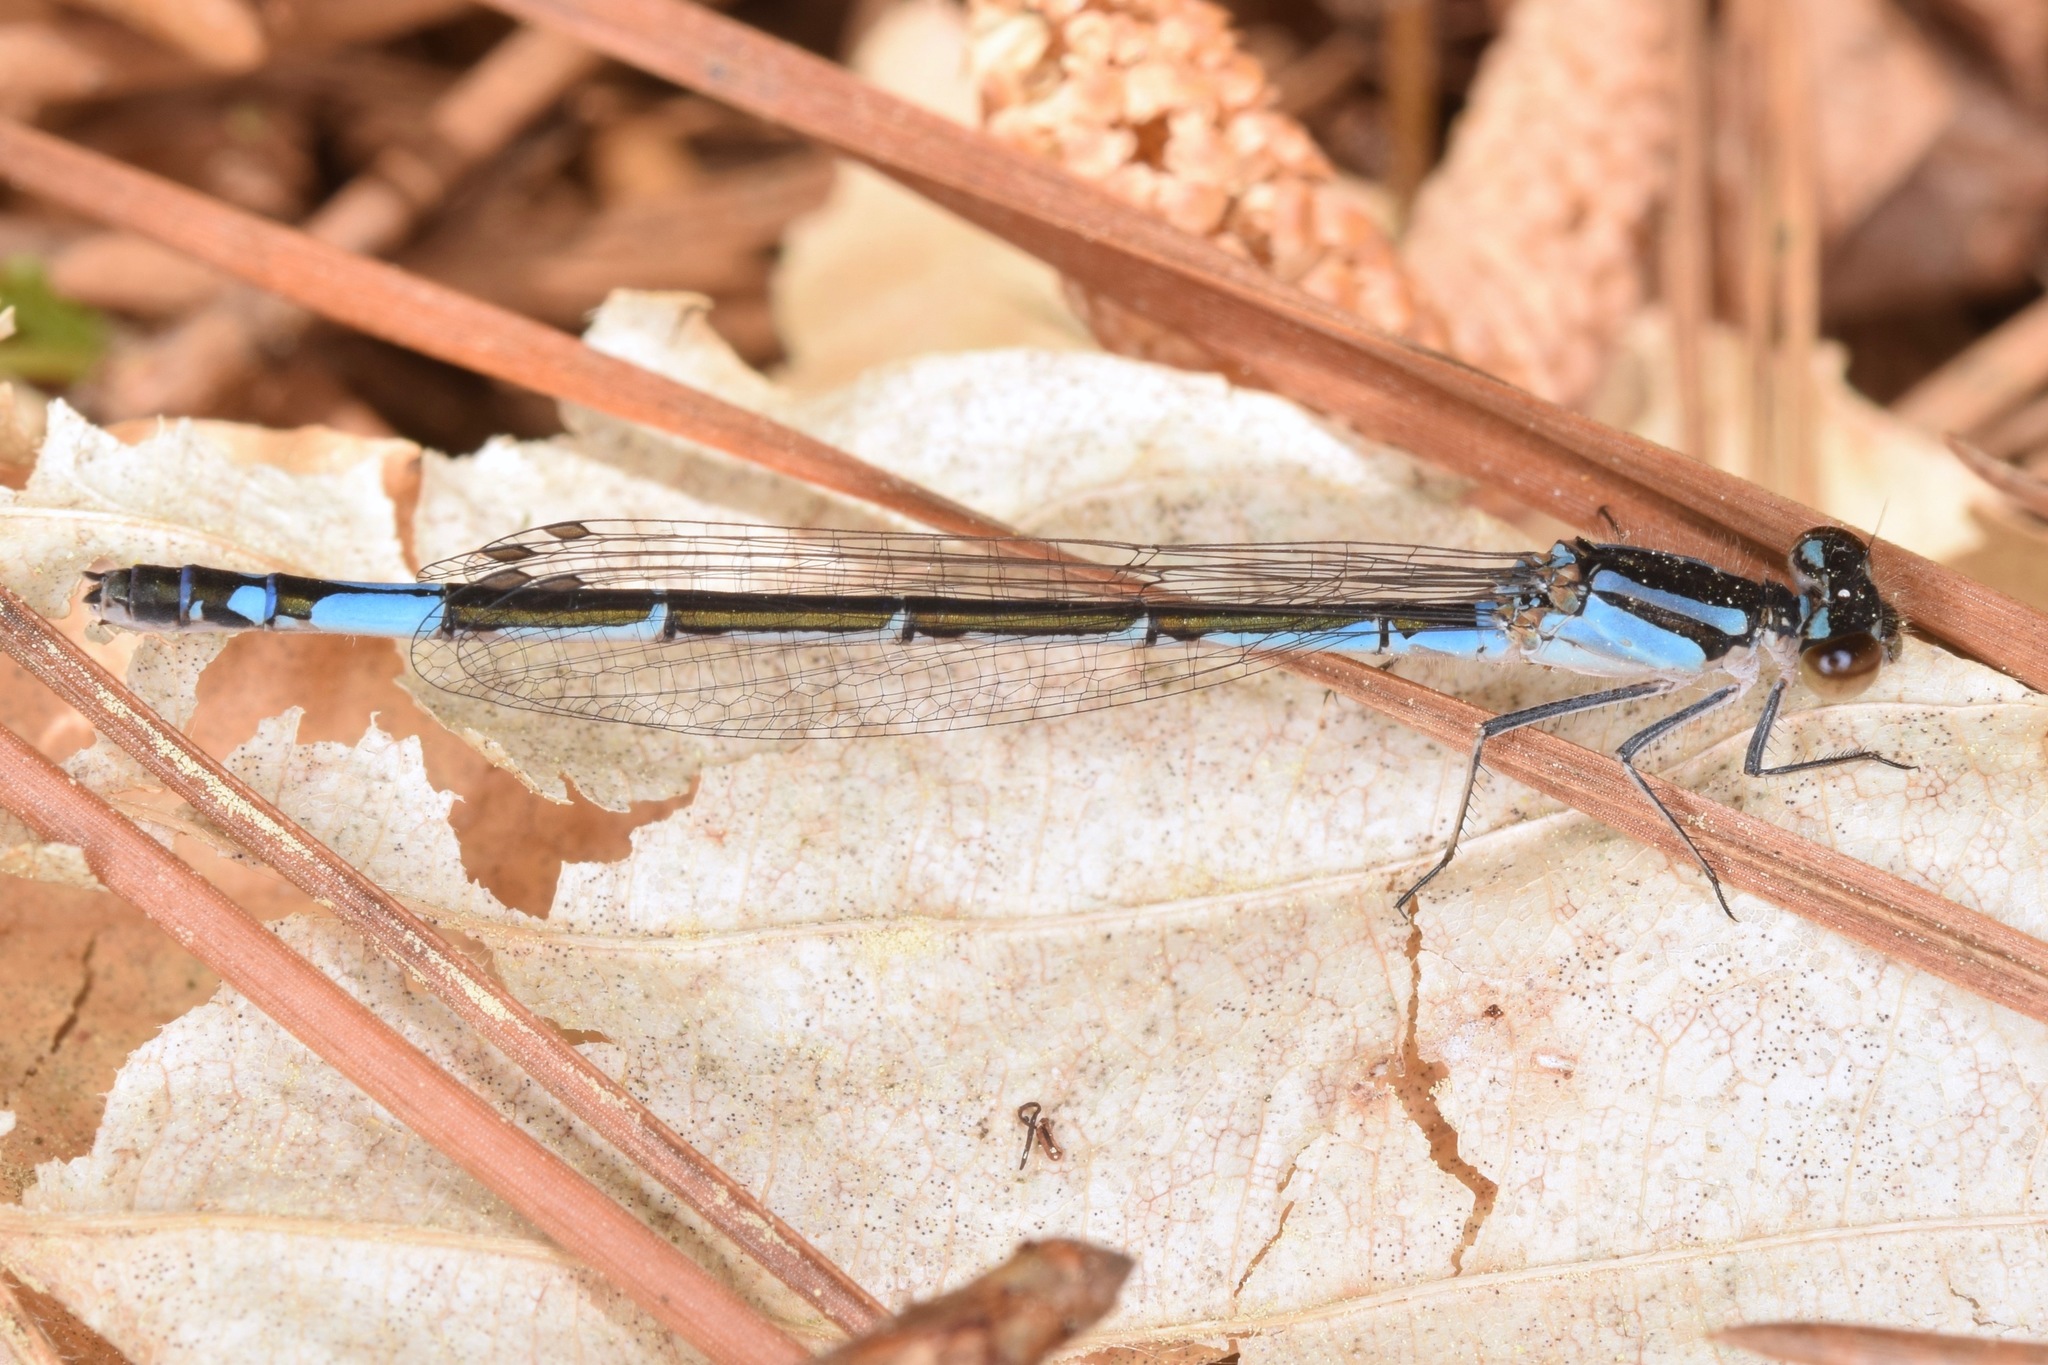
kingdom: Animalia
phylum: Arthropoda
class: Insecta
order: Odonata
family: Coenagrionidae
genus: Enallagma
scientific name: Enallagma aspersum
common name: Azure bluet
